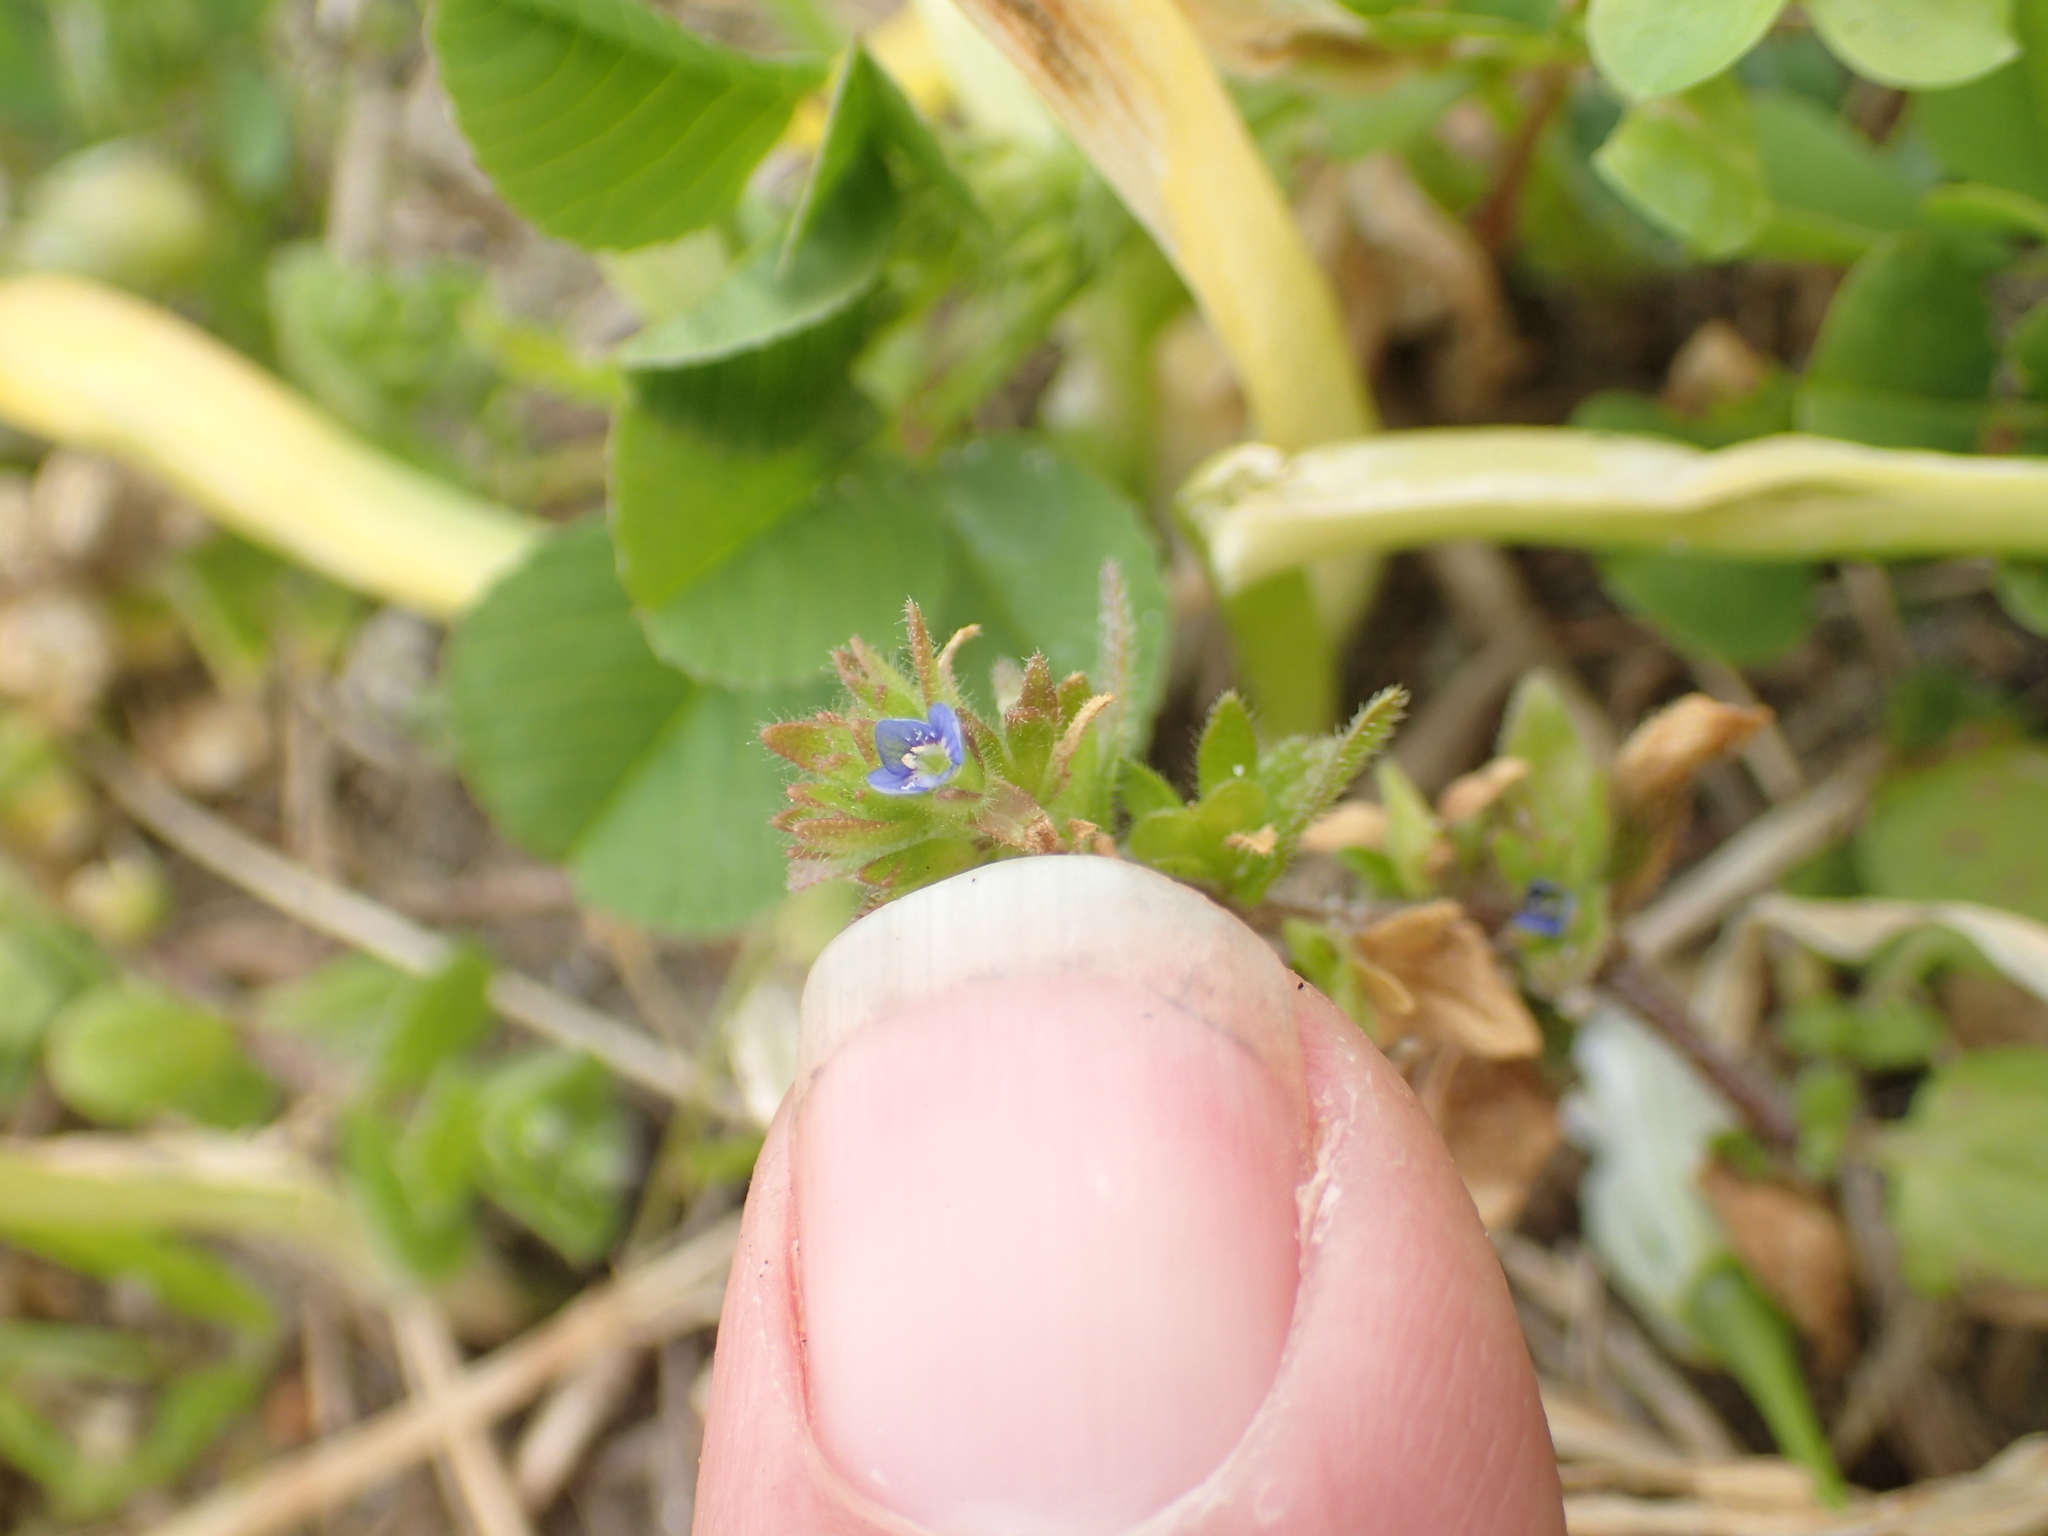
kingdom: Plantae
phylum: Tracheophyta
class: Magnoliopsida
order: Lamiales
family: Plantaginaceae
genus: Veronica
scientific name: Veronica arvensis
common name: Corn speedwell
